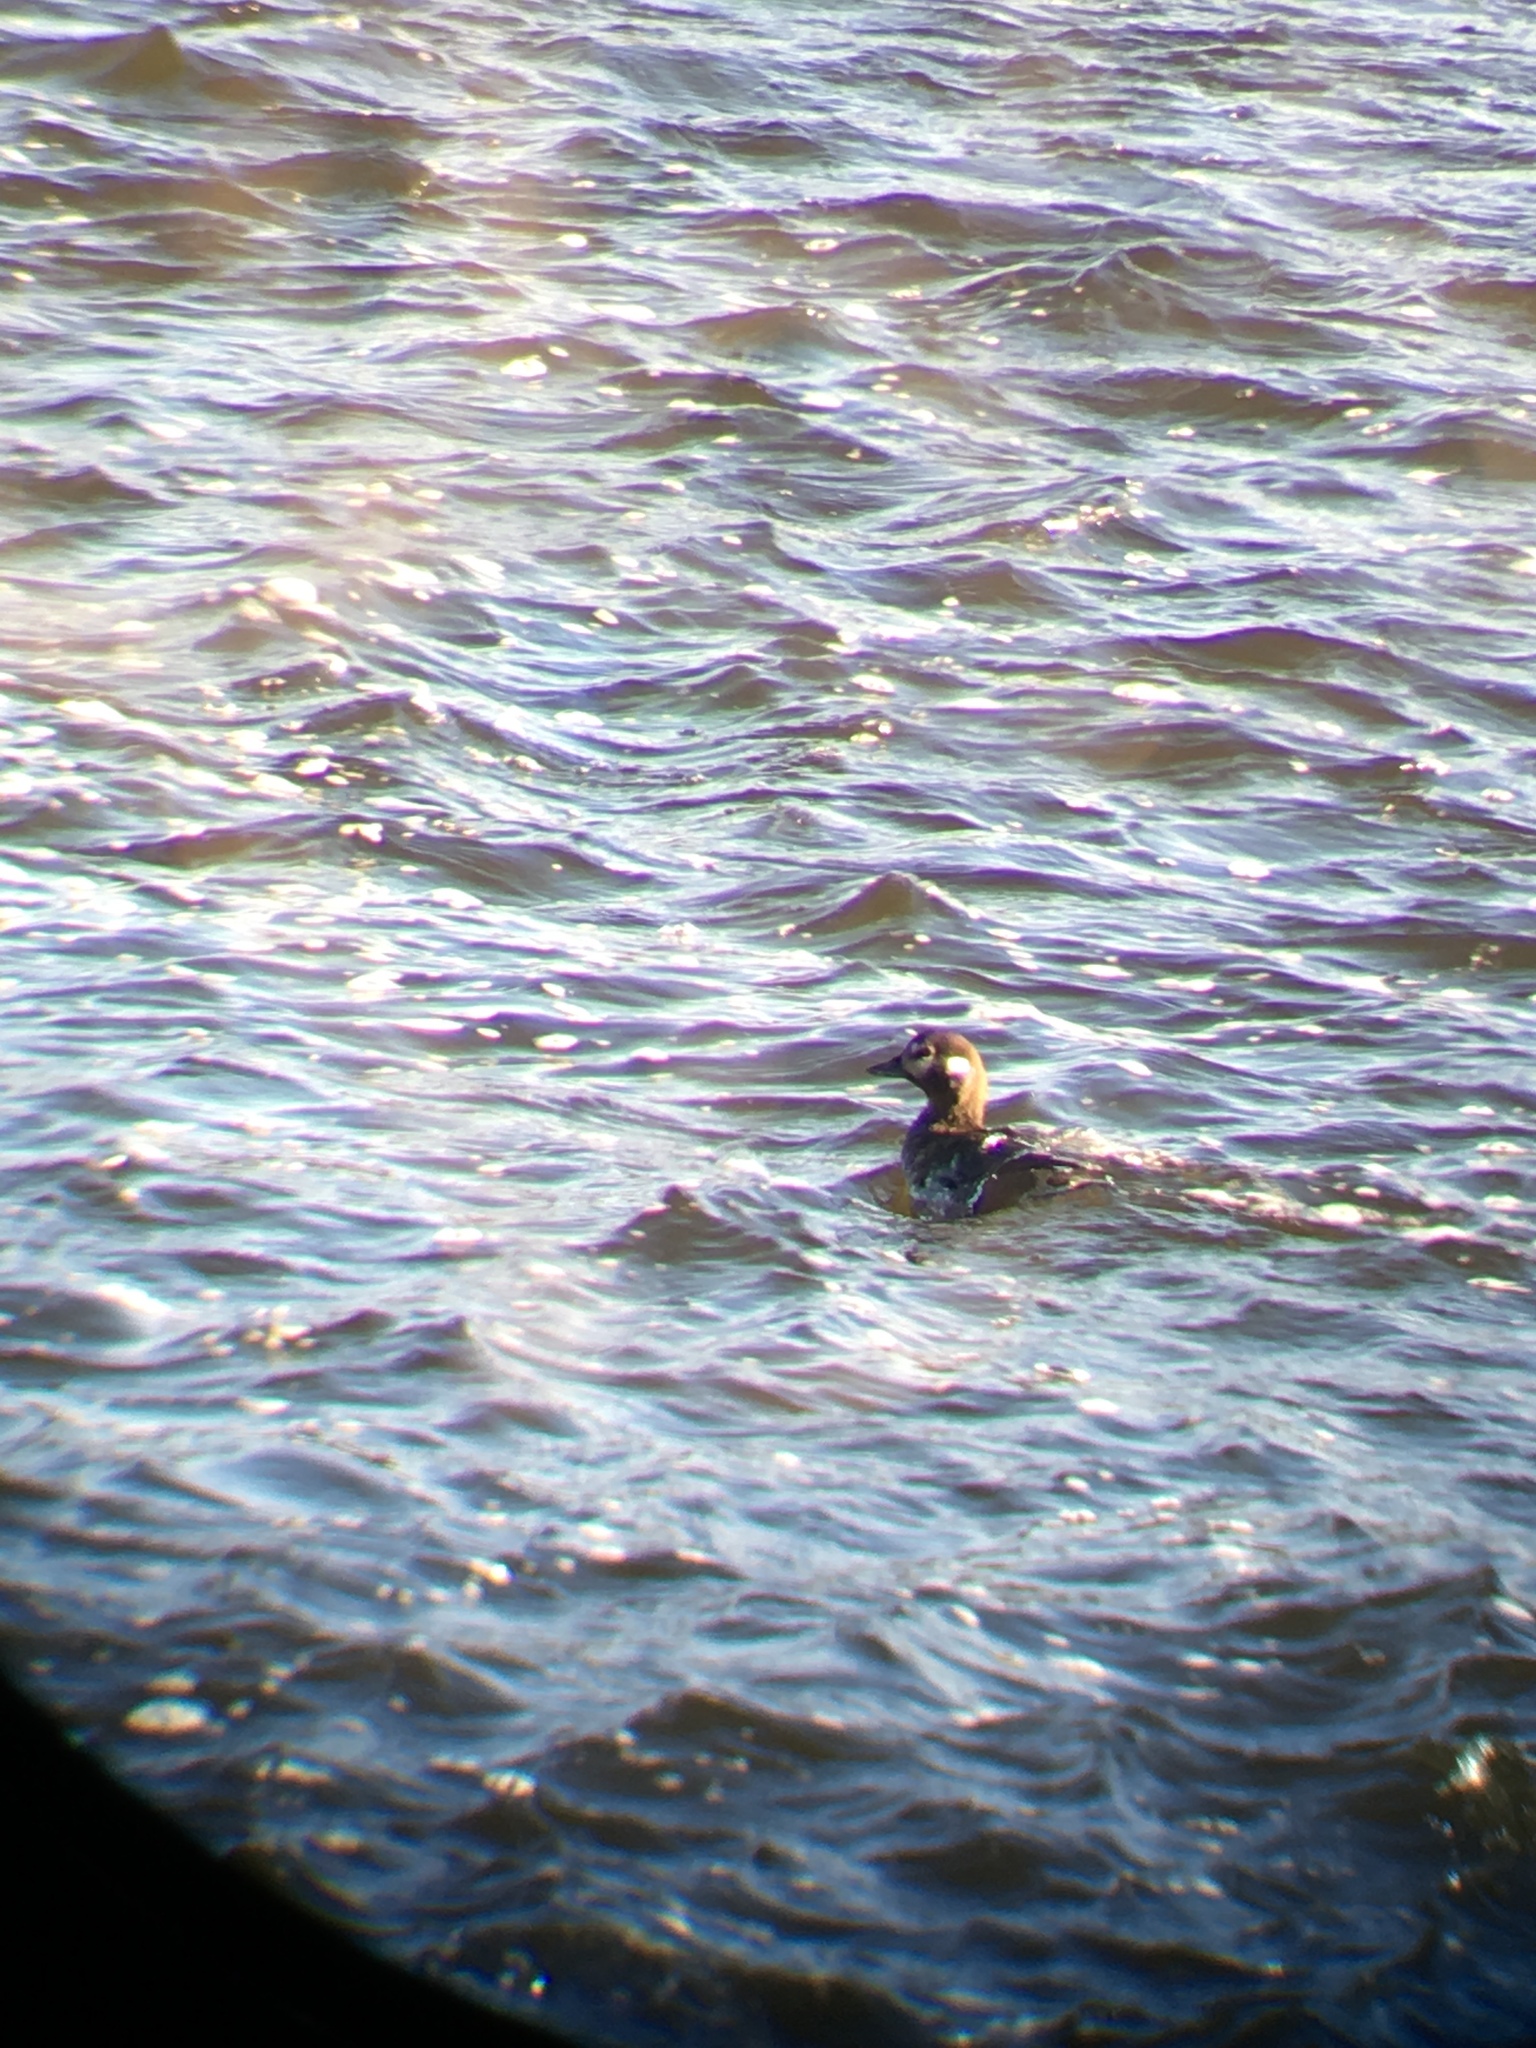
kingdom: Animalia
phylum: Chordata
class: Aves
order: Anseriformes
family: Anatidae
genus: Histrionicus
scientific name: Histrionicus histrionicus
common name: Harlequin duck
